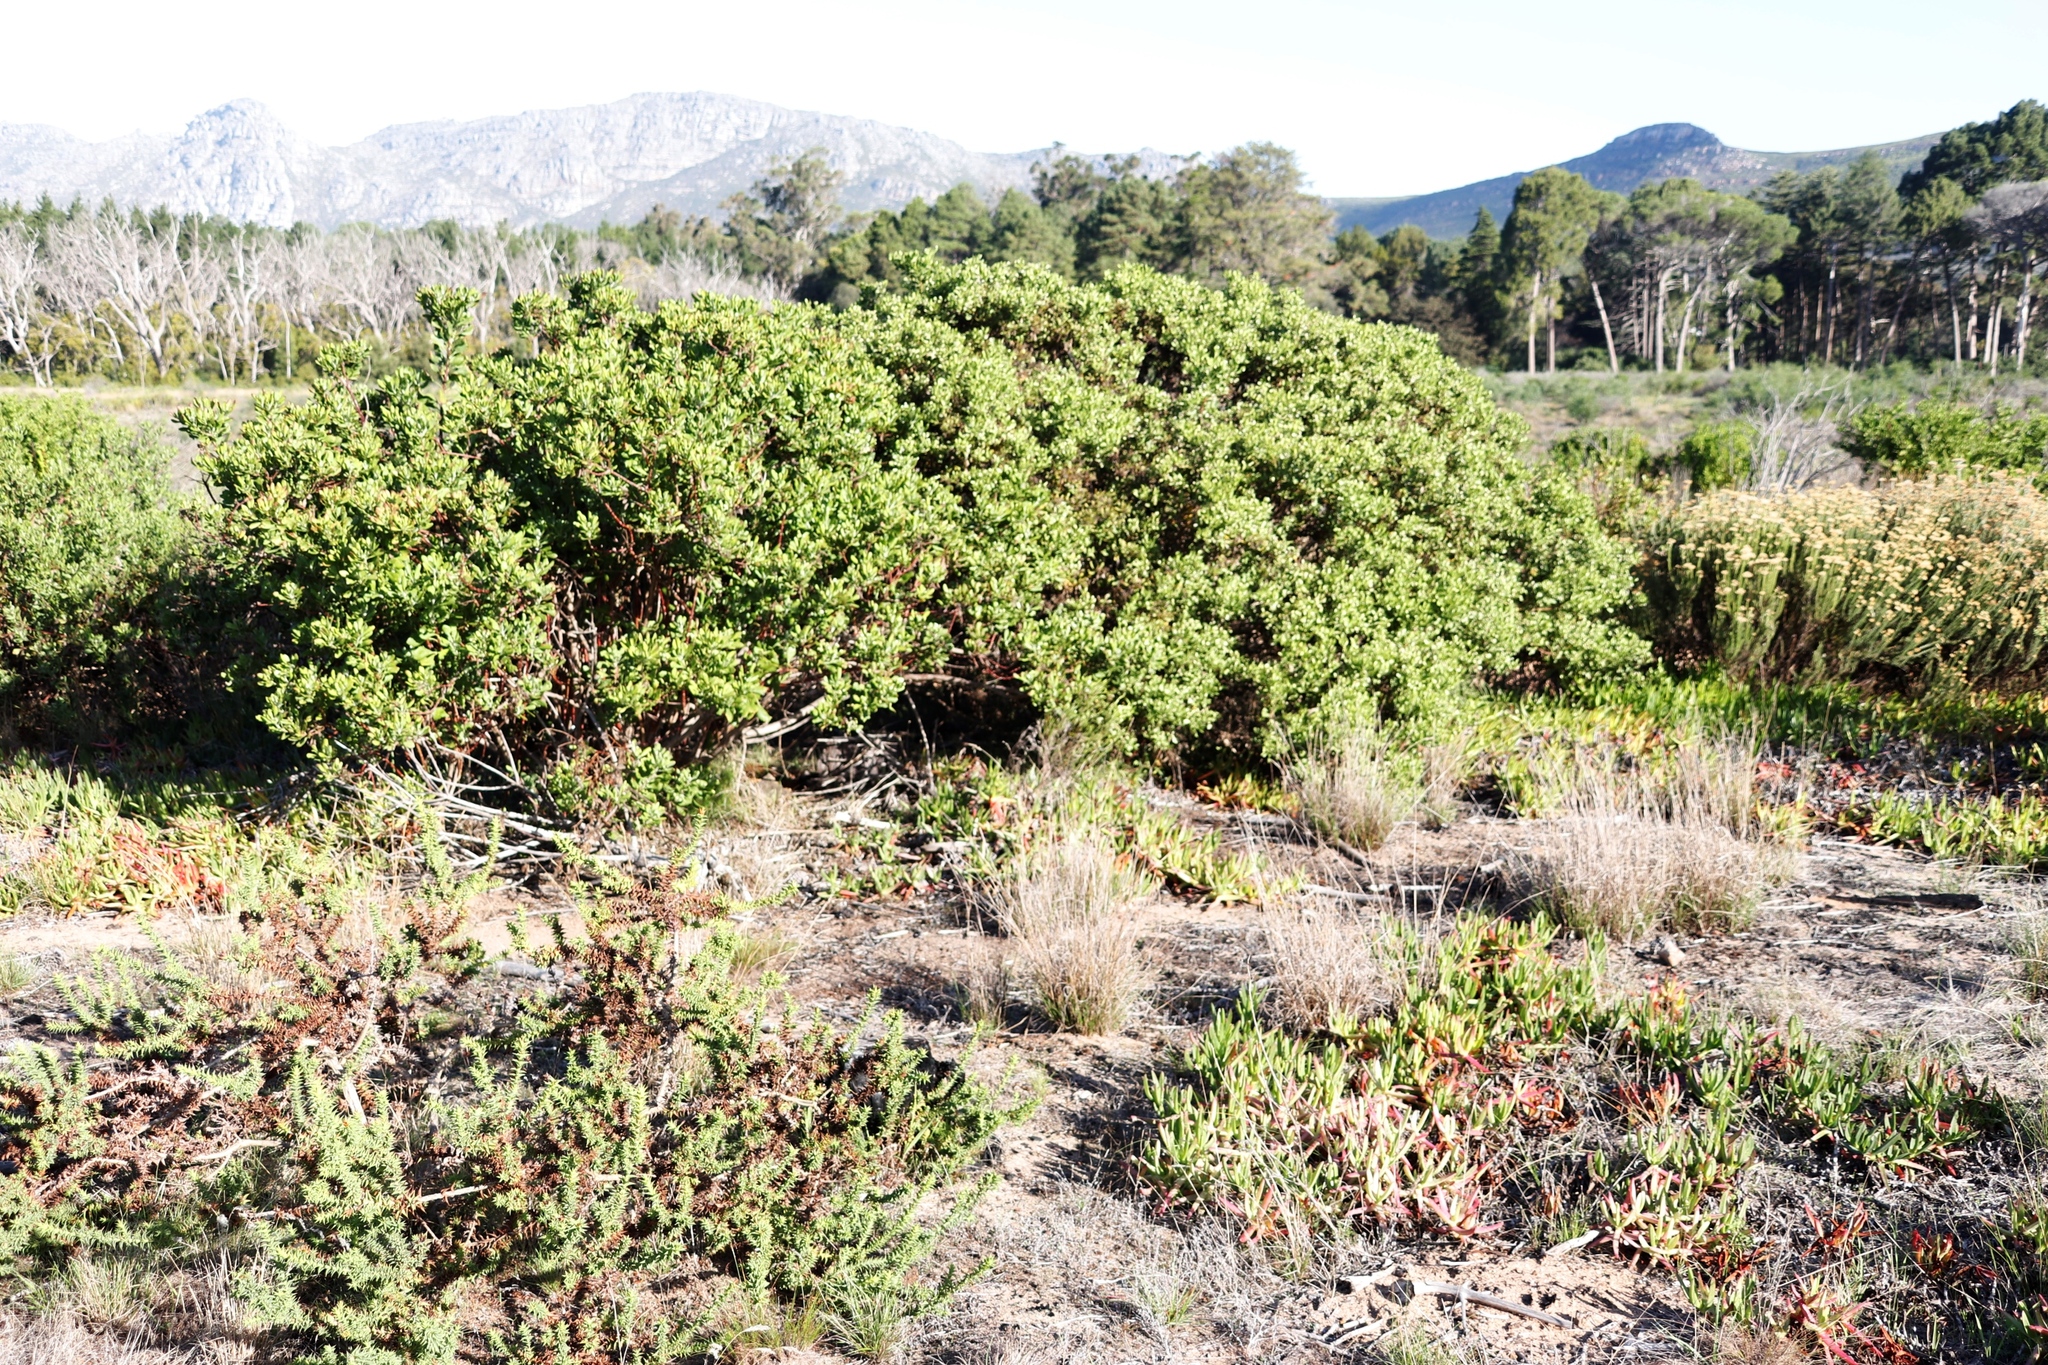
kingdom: Plantae
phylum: Tracheophyta
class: Magnoliopsida
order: Asterales
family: Asteraceae
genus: Osteospermum
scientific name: Osteospermum moniliferum
